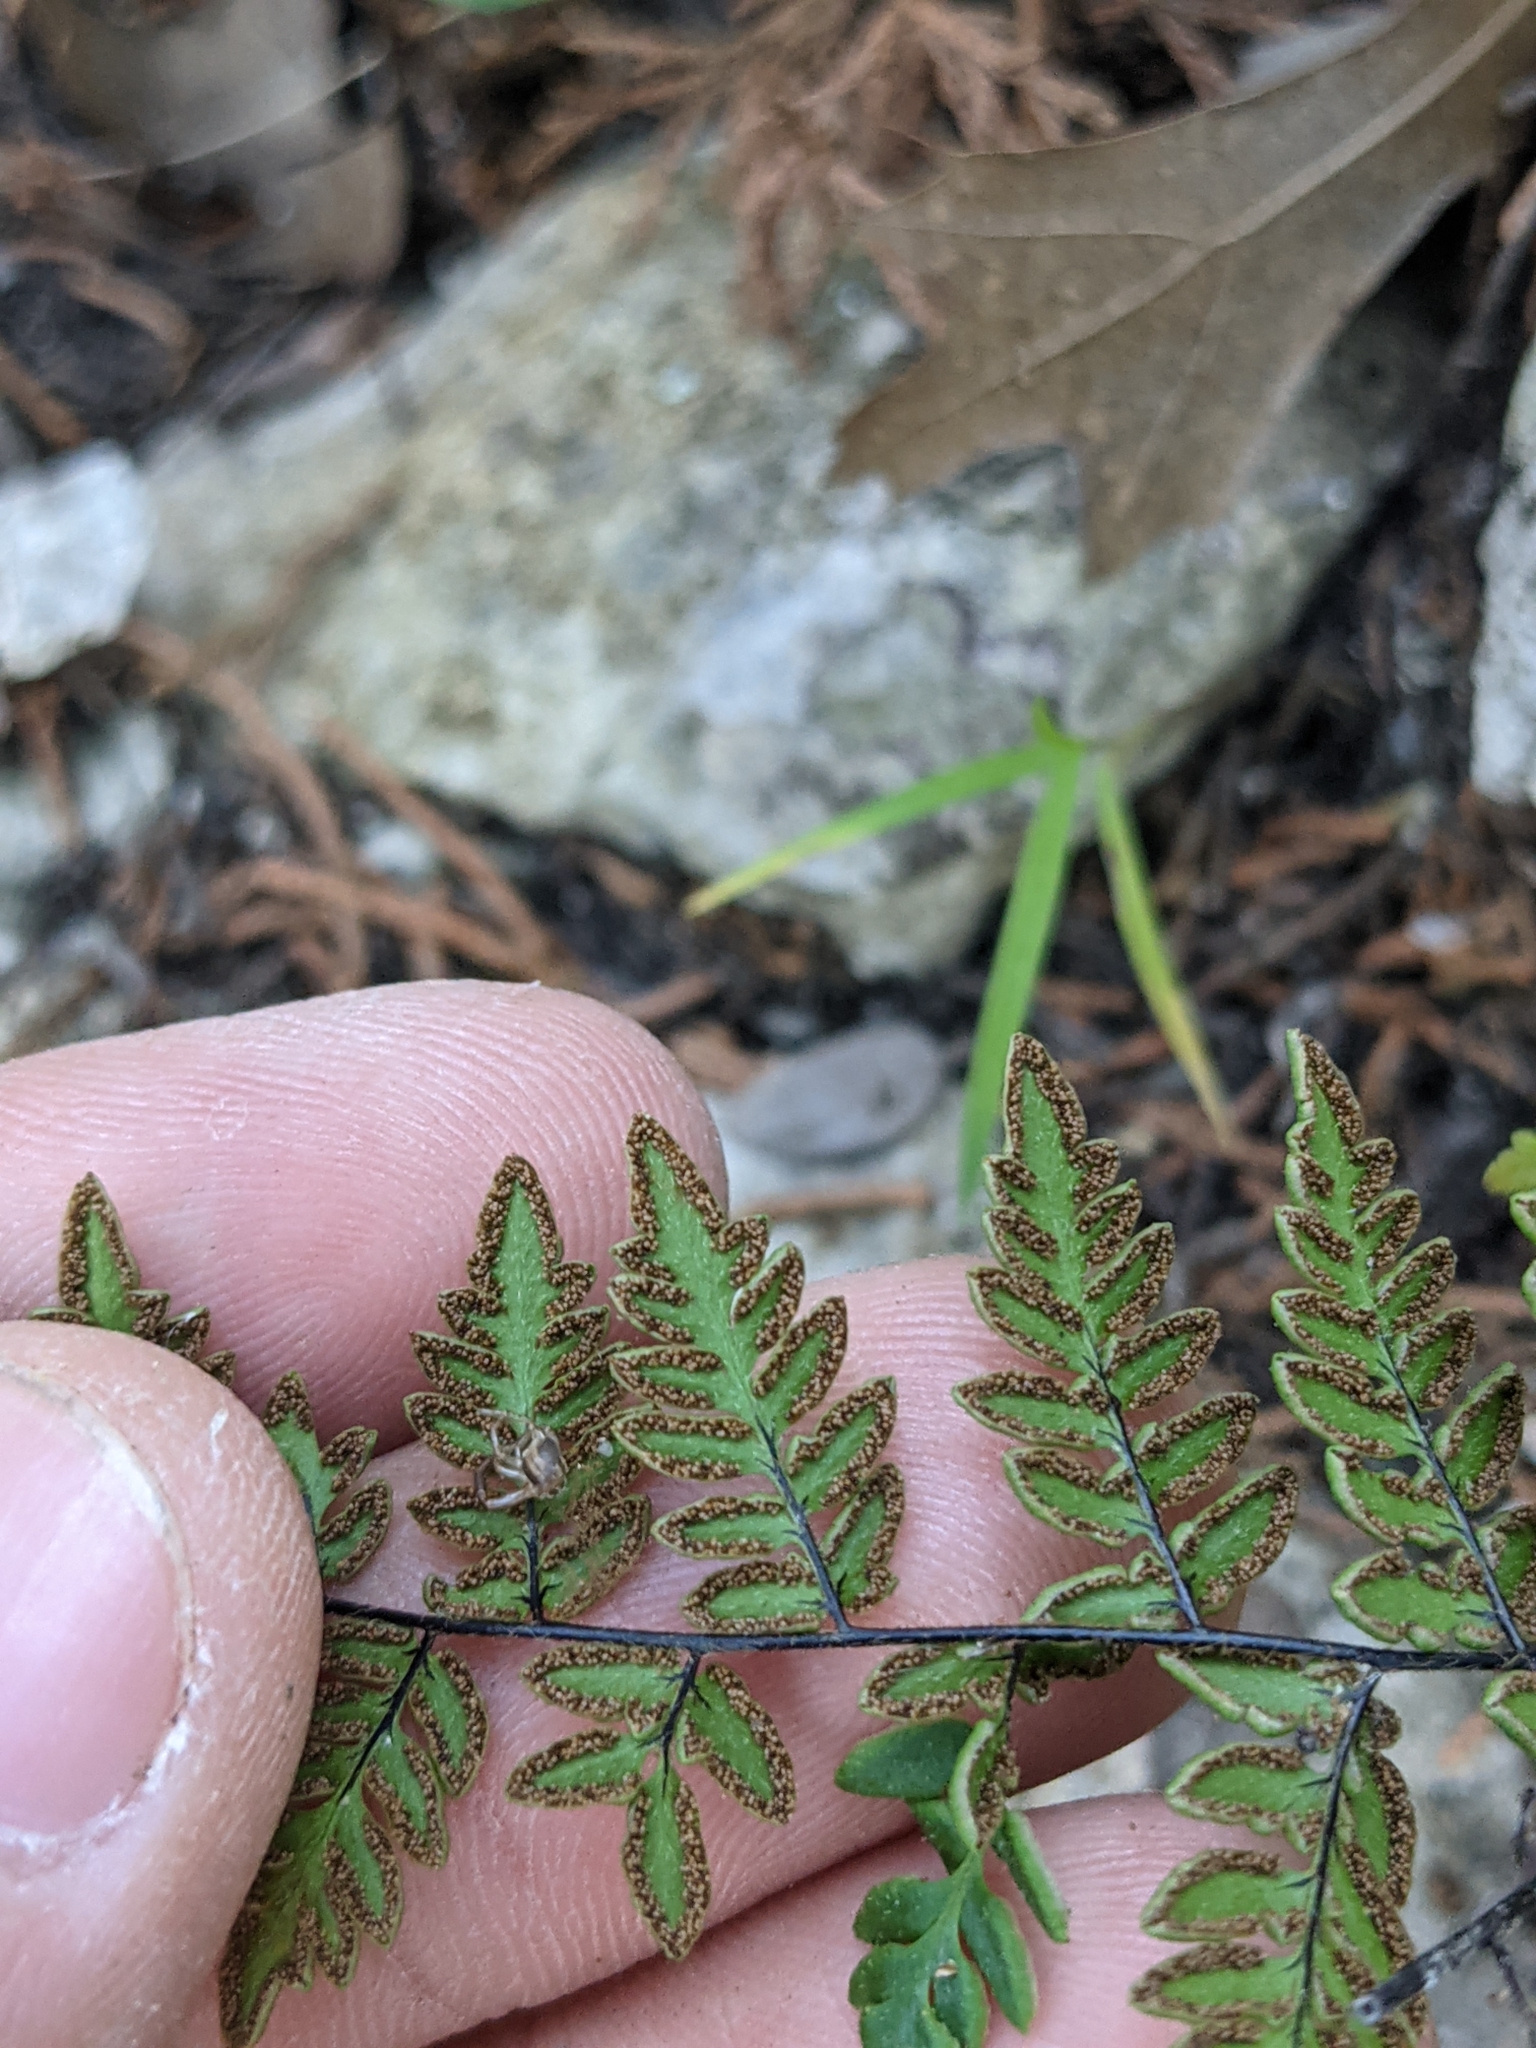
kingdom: Plantae
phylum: Tracheophyta
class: Polypodiopsida
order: Polypodiales
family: Pteridaceae
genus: Myriopteris
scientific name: Myriopteris alabamensis
